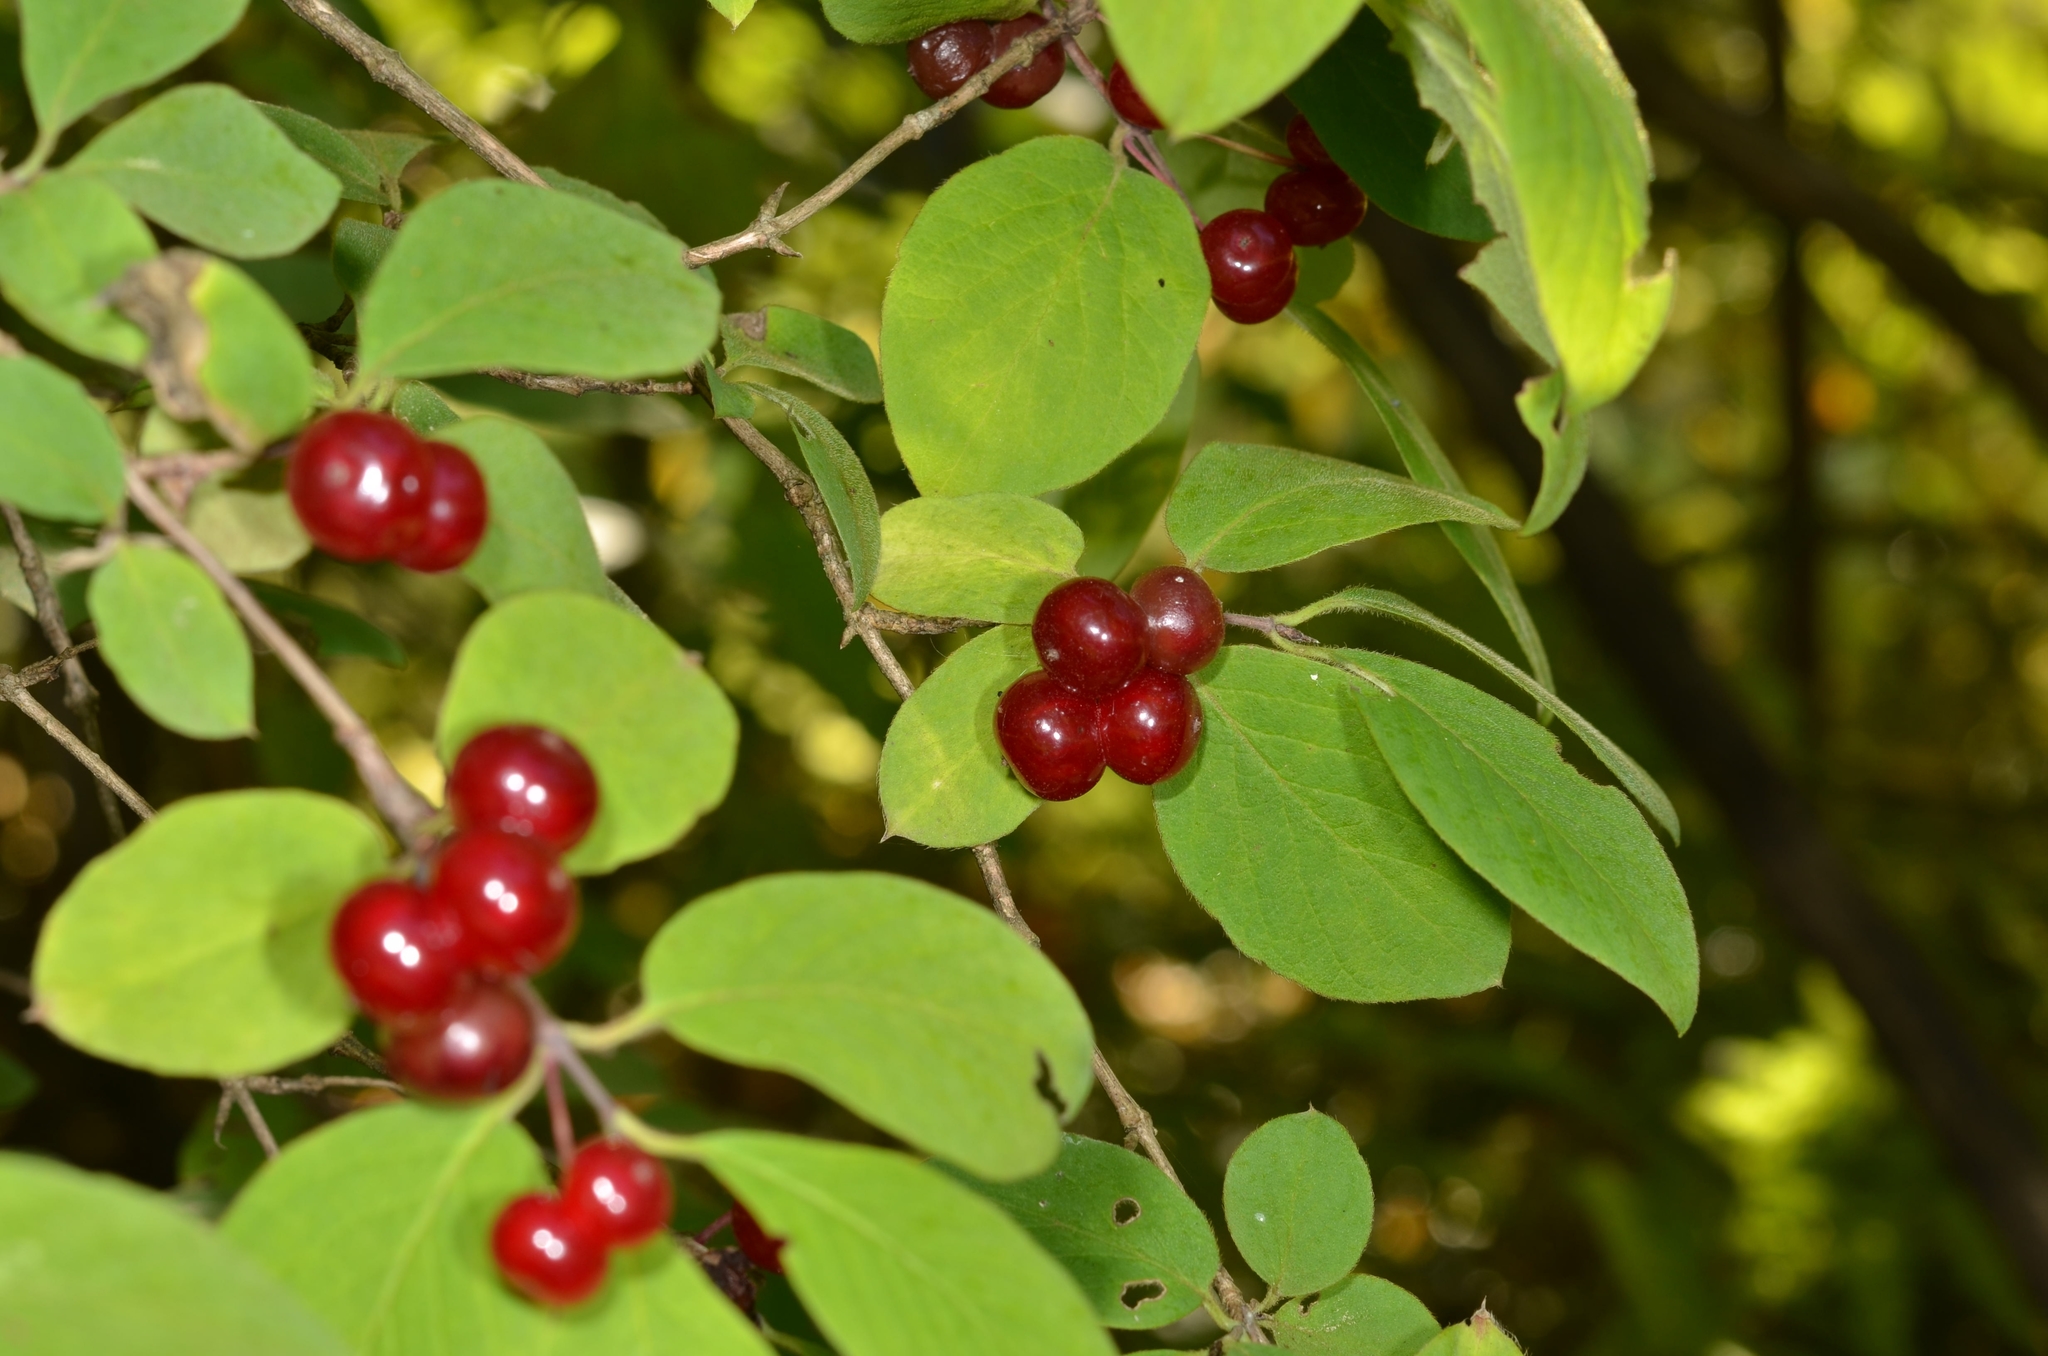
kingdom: Plantae
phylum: Tracheophyta
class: Magnoliopsida
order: Dipsacales
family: Caprifoliaceae
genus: Lonicera
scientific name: Lonicera xylosteum
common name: Fly honeysuckle
